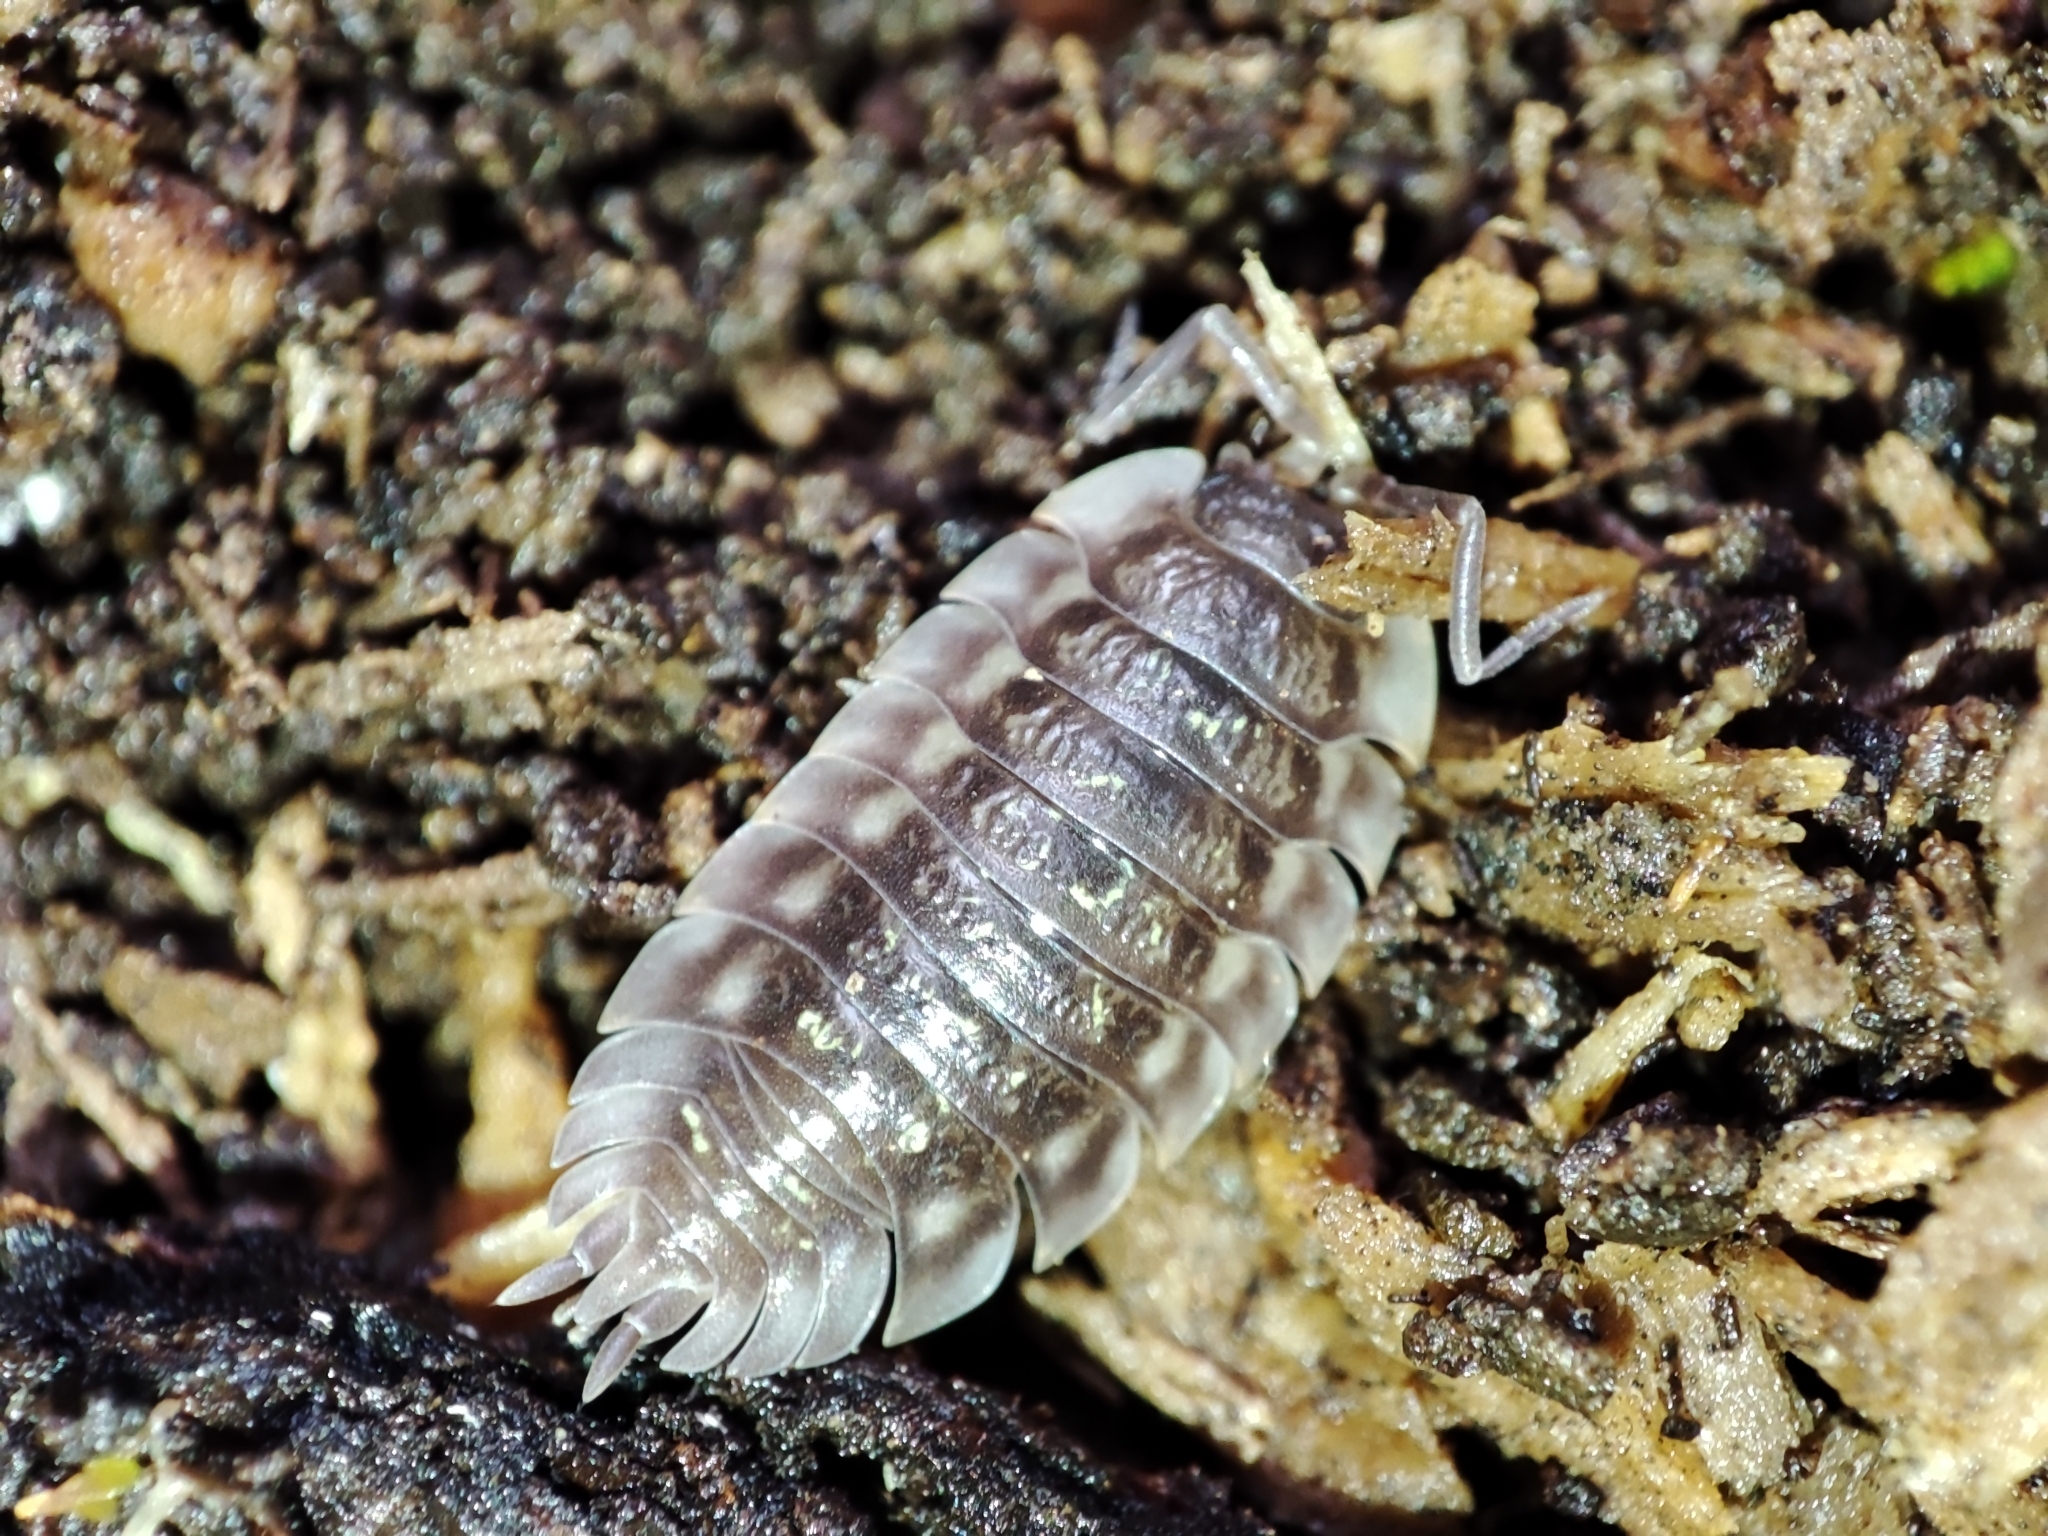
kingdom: Animalia
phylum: Arthropoda
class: Malacostraca
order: Isopoda
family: Oniscidae
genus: Oniscus
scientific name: Oniscus asellus
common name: Common shiny woodlouse
